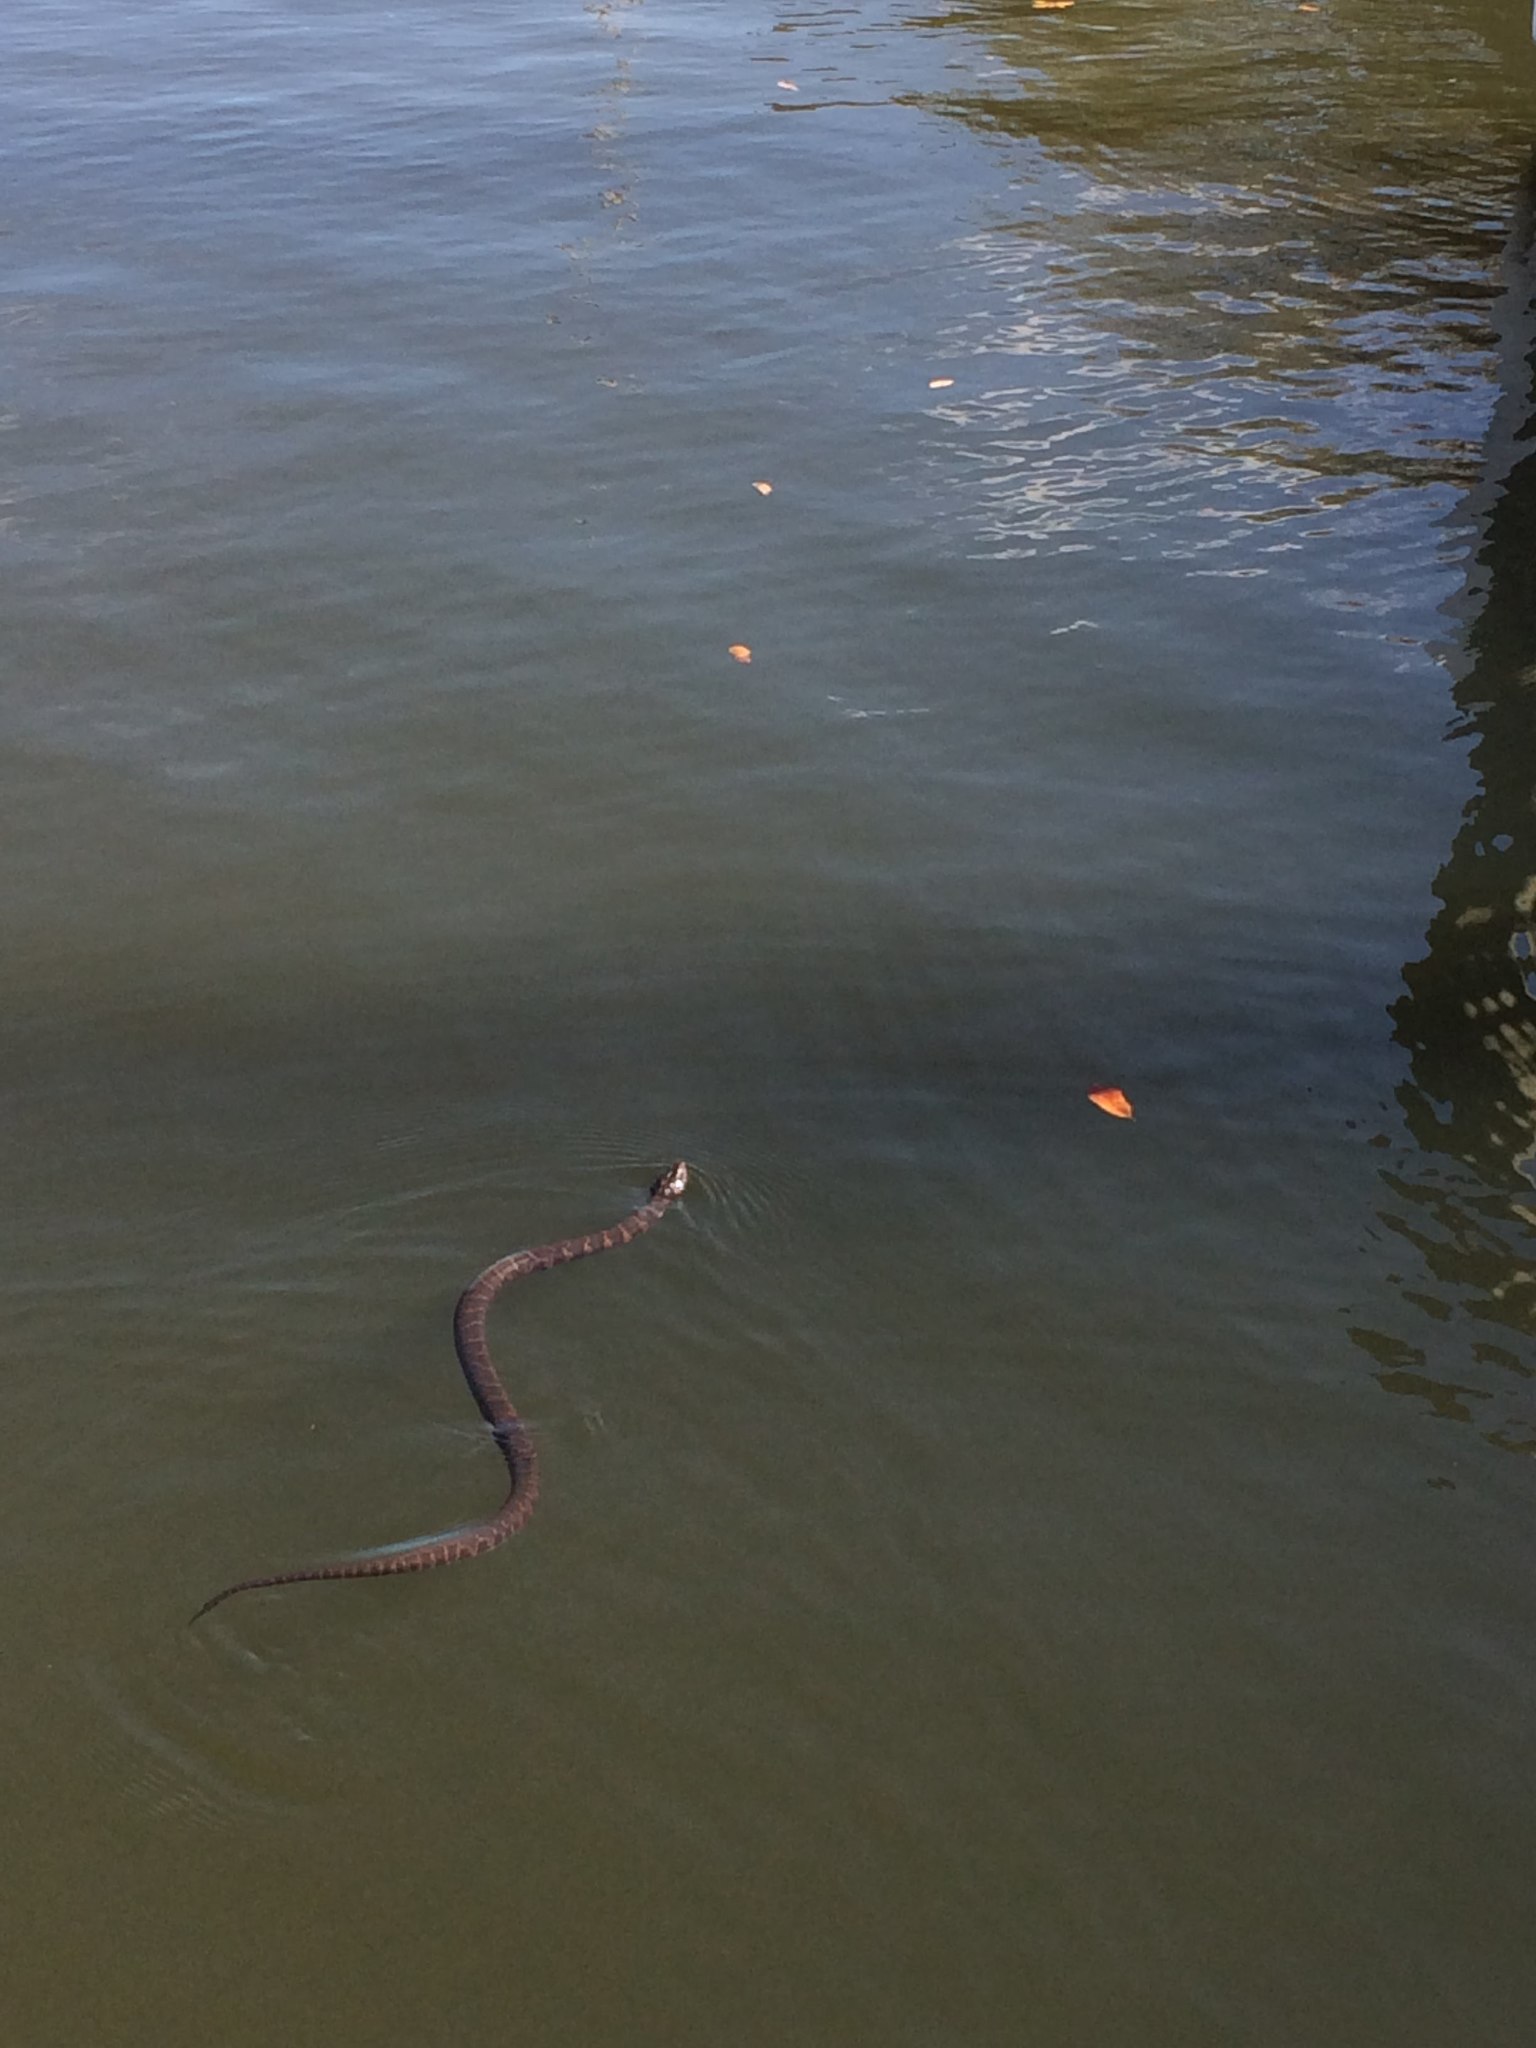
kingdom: Animalia
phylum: Chordata
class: Squamata
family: Colubridae
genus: Nerodia
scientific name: Nerodia sipedon
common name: Northern water snake
